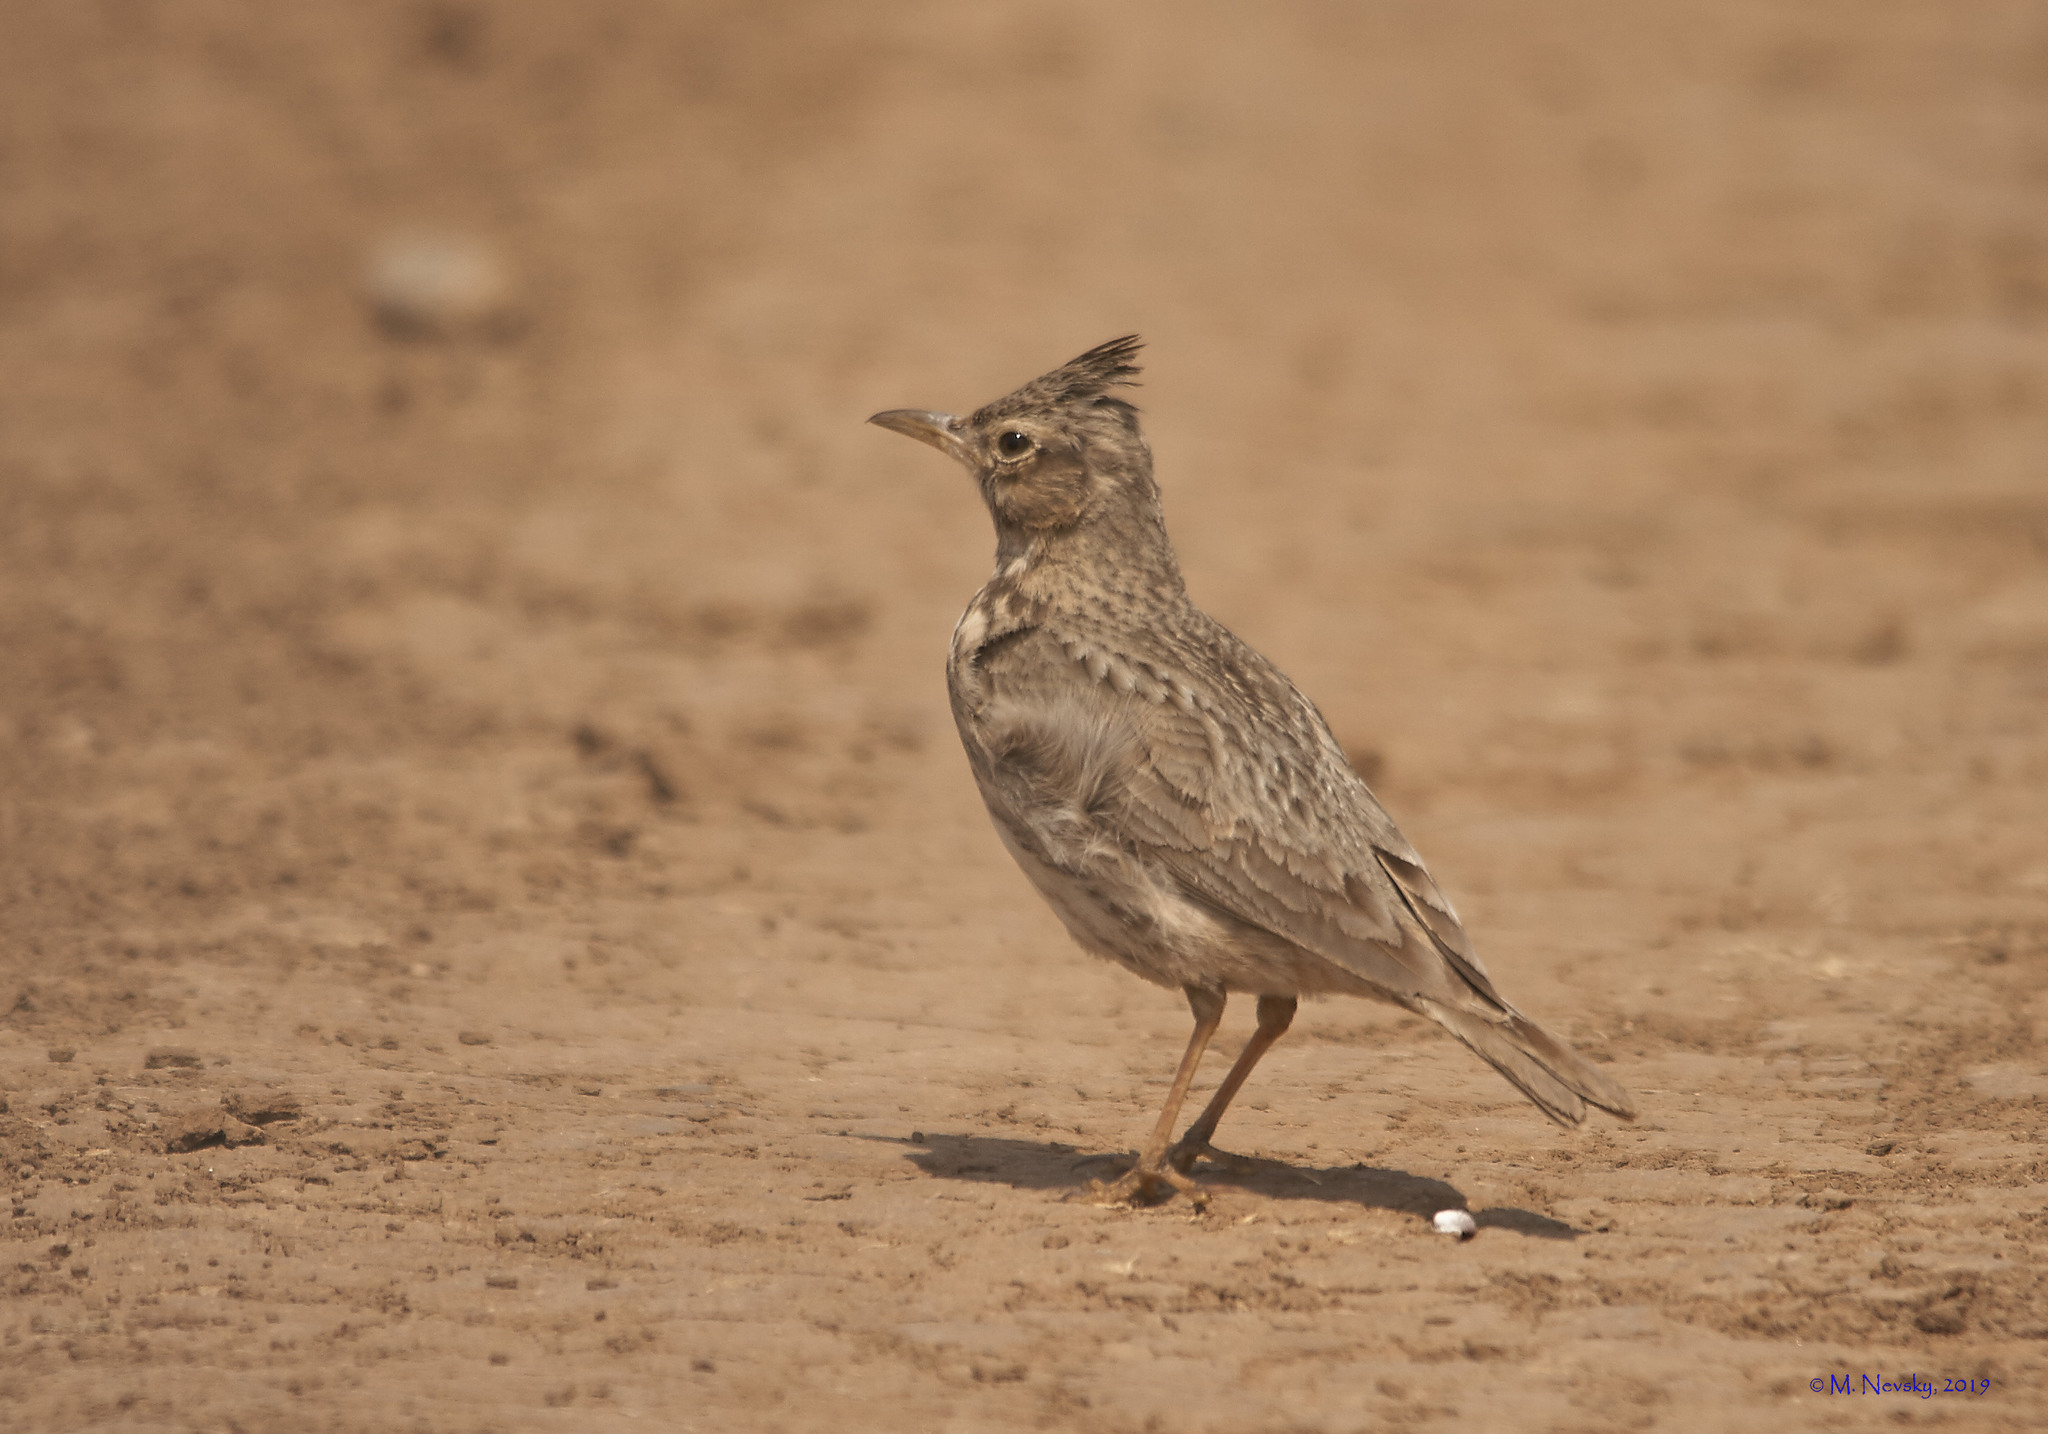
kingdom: Animalia
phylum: Chordata
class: Aves
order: Passeriformes
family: Alaudidae
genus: Galerida
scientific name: Galerida cristata
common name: Crested lark
